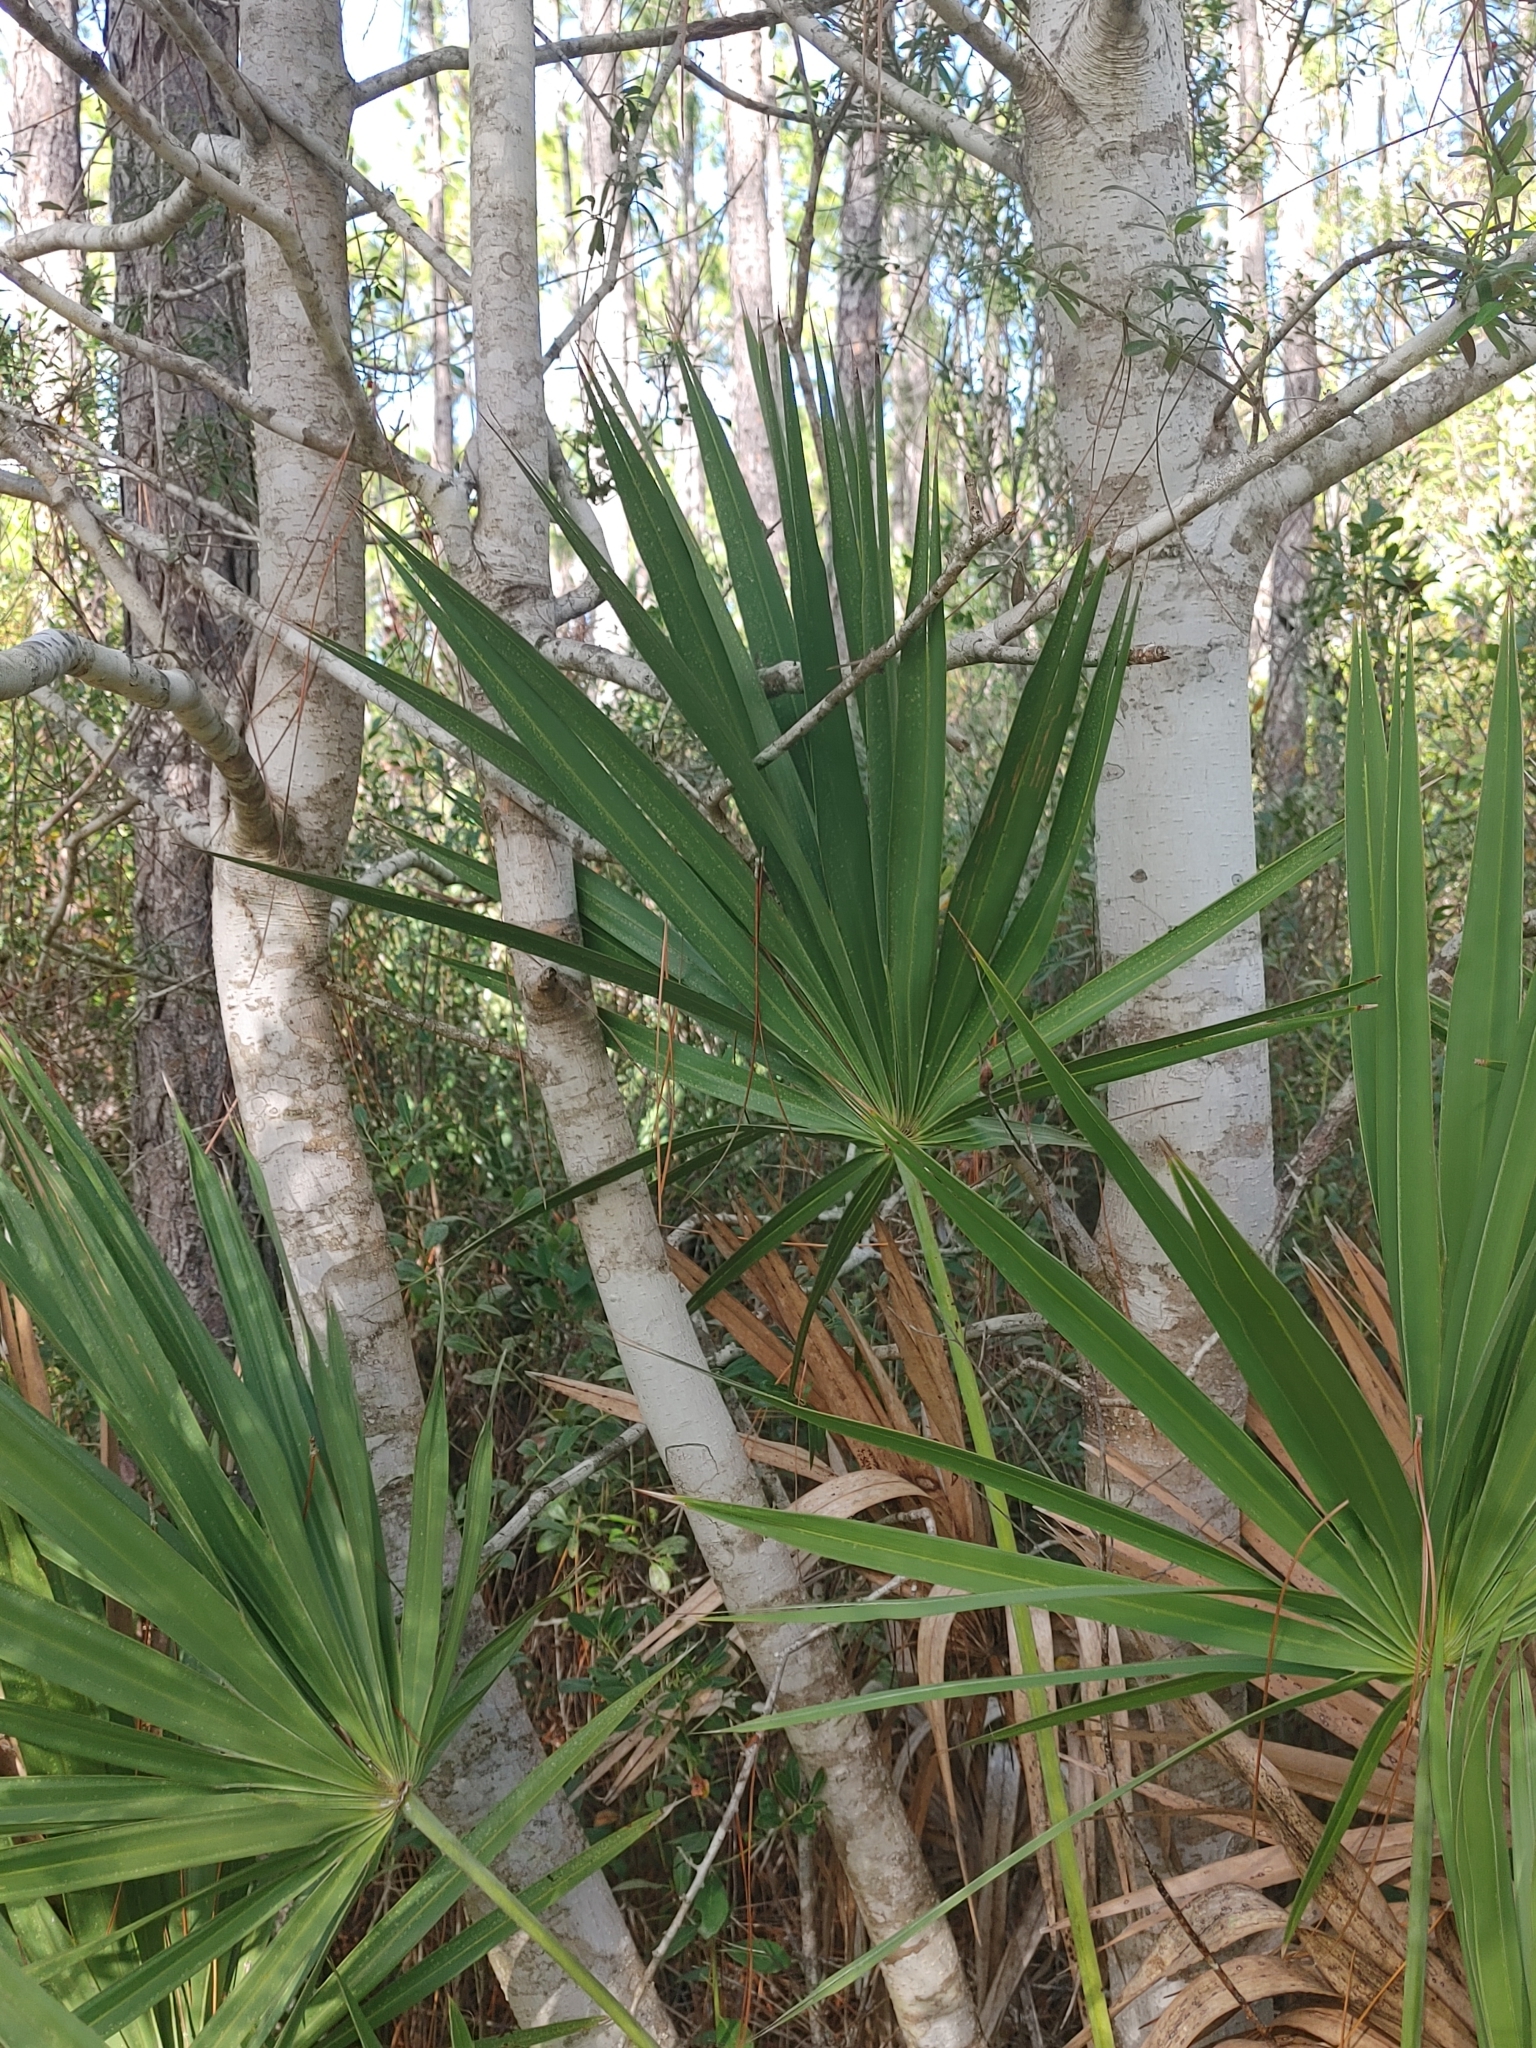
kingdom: Plantae
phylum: Tracheophyta
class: Magnoliopsida
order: Aquifoliales
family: Aquifoliaceae
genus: Ilex
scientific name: Ilex myrtifolia
